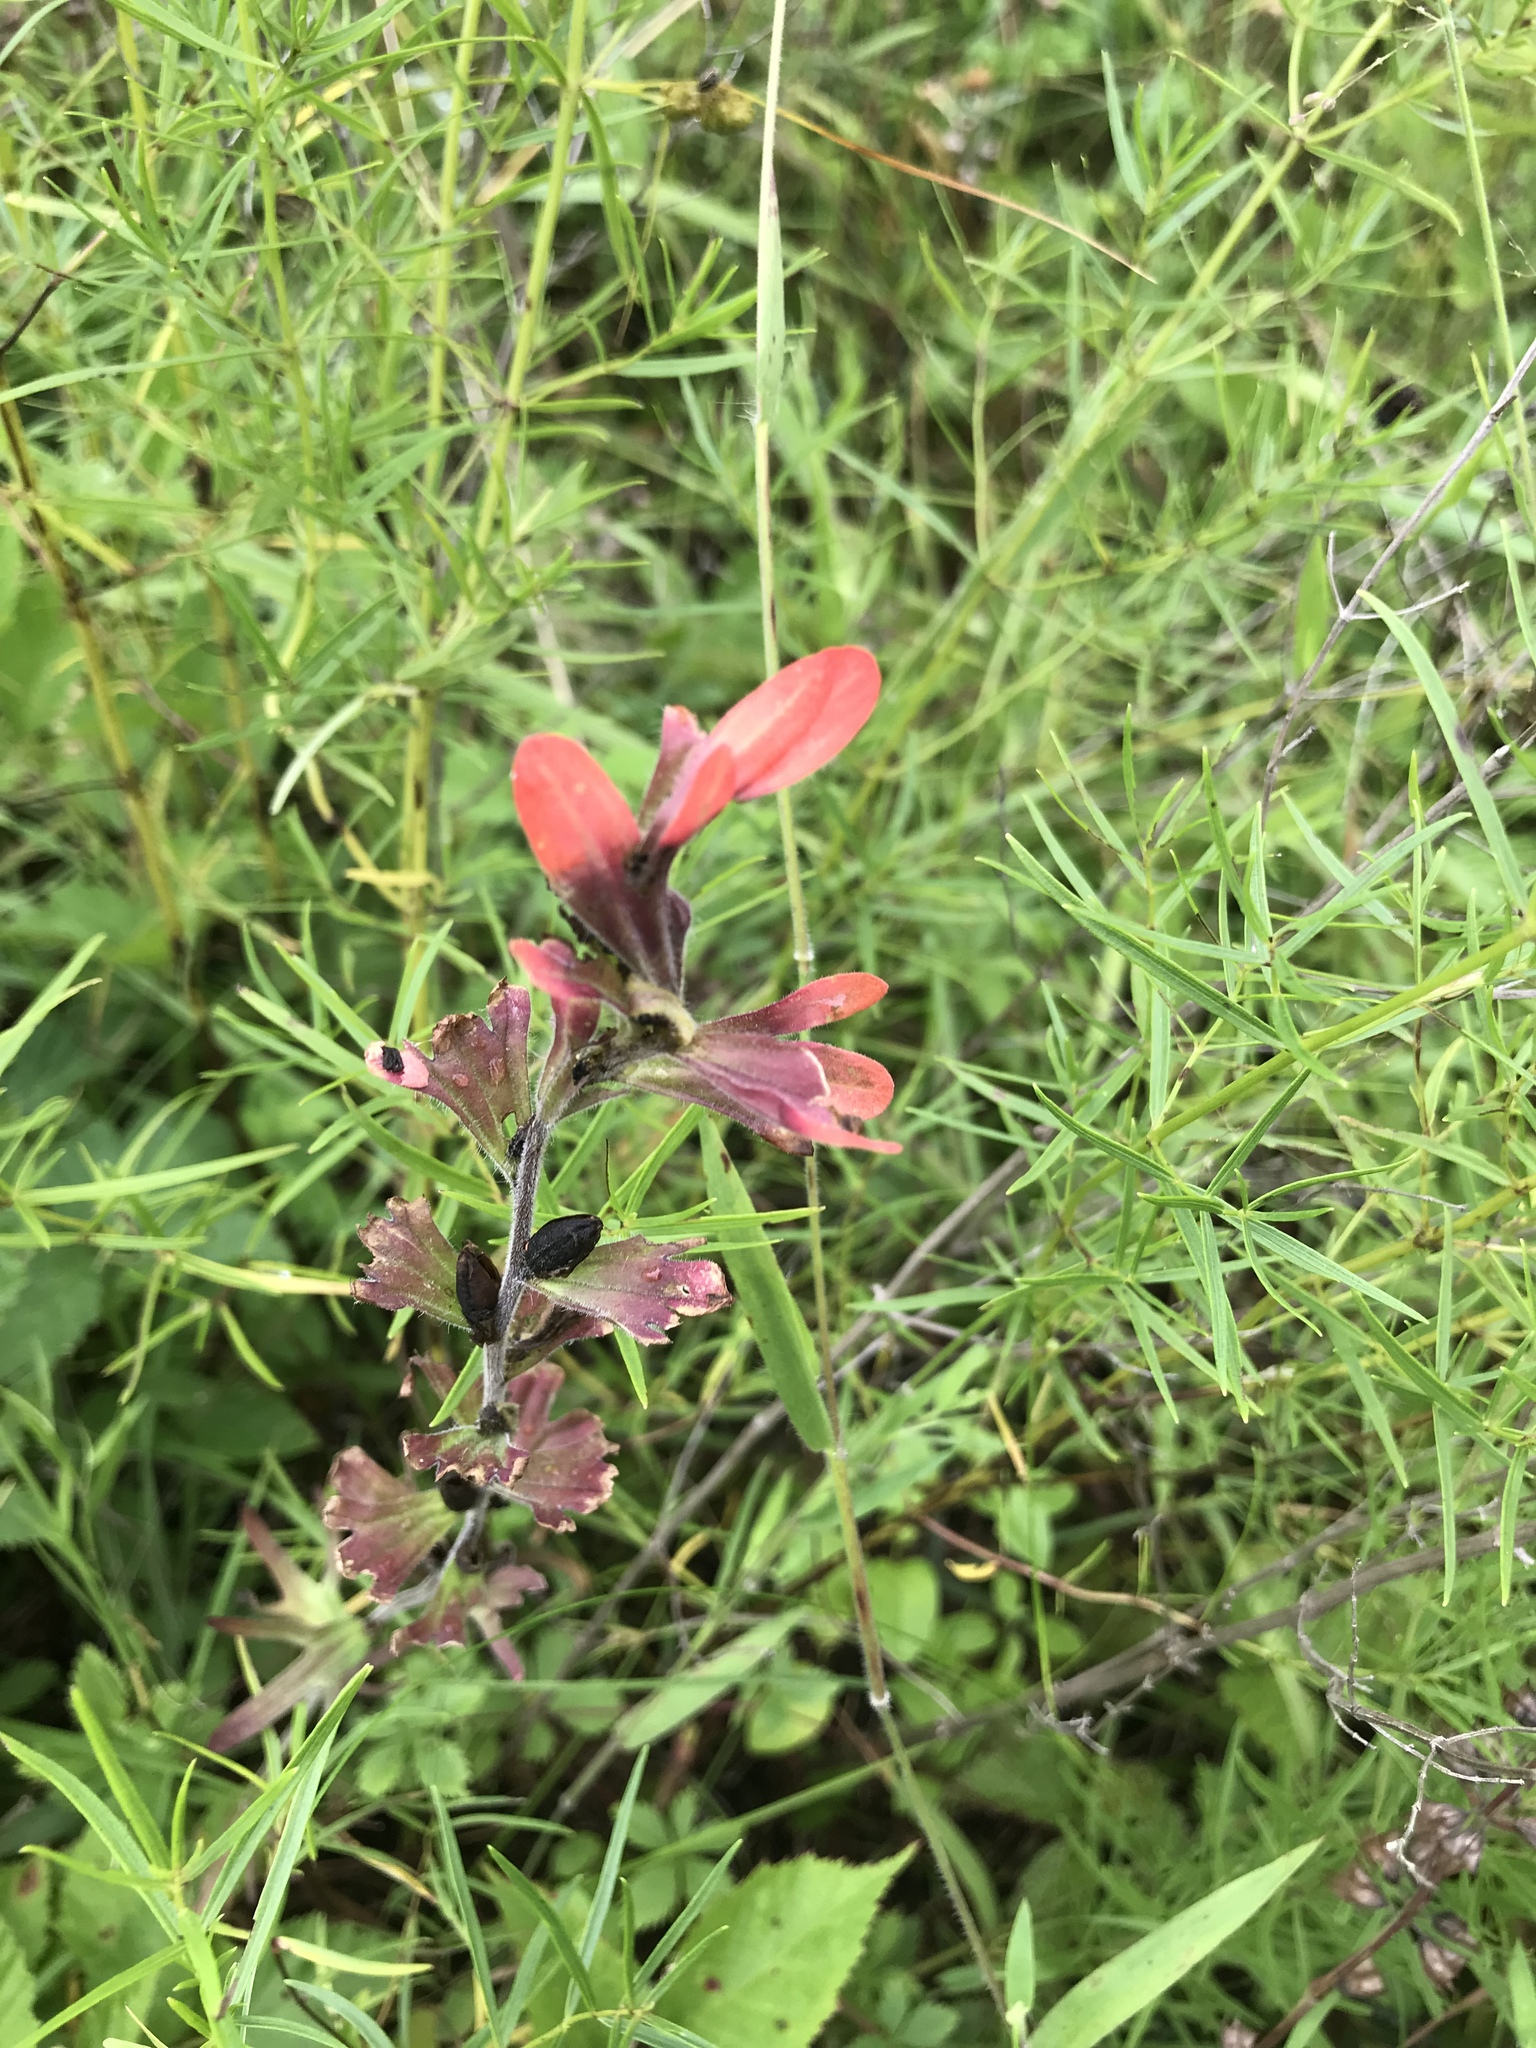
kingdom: Plantae
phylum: Tracheophyta
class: Magnoliopsida
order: Lamiales
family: Orobanchaceae
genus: Castilleja
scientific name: Castilleja coccinea
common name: Scarlet paintbrush
